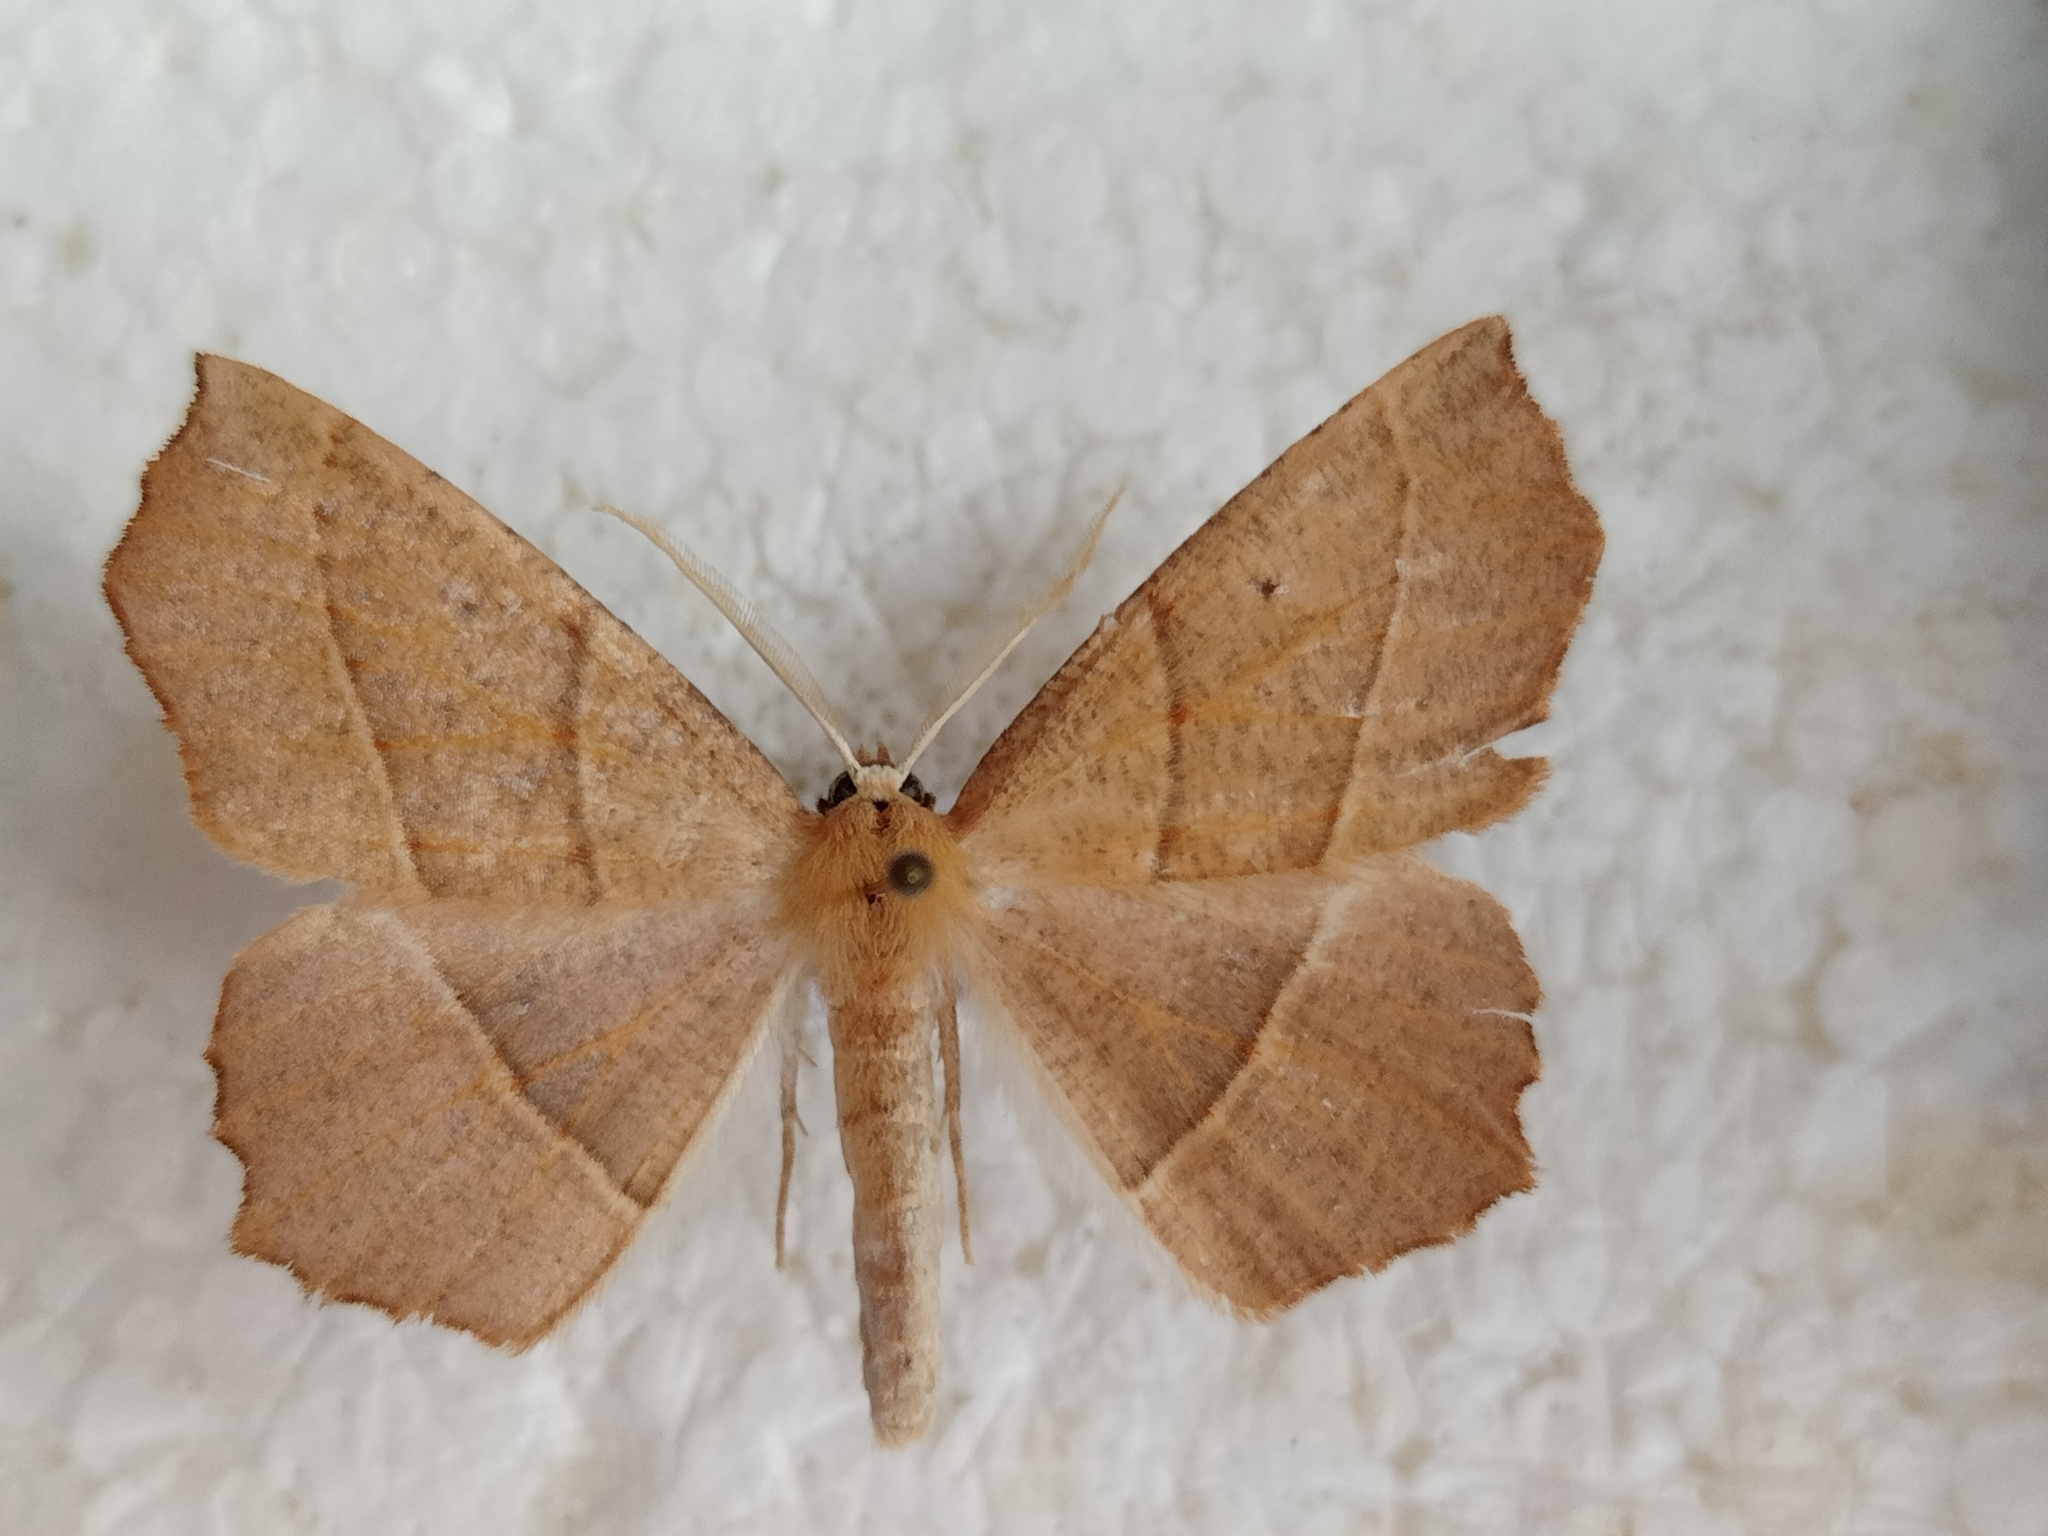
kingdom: Animalia
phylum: Arthropoda
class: Insecta
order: Lepidoptera
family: Geometridae
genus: Gerinia
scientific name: Gerinia honoraria
